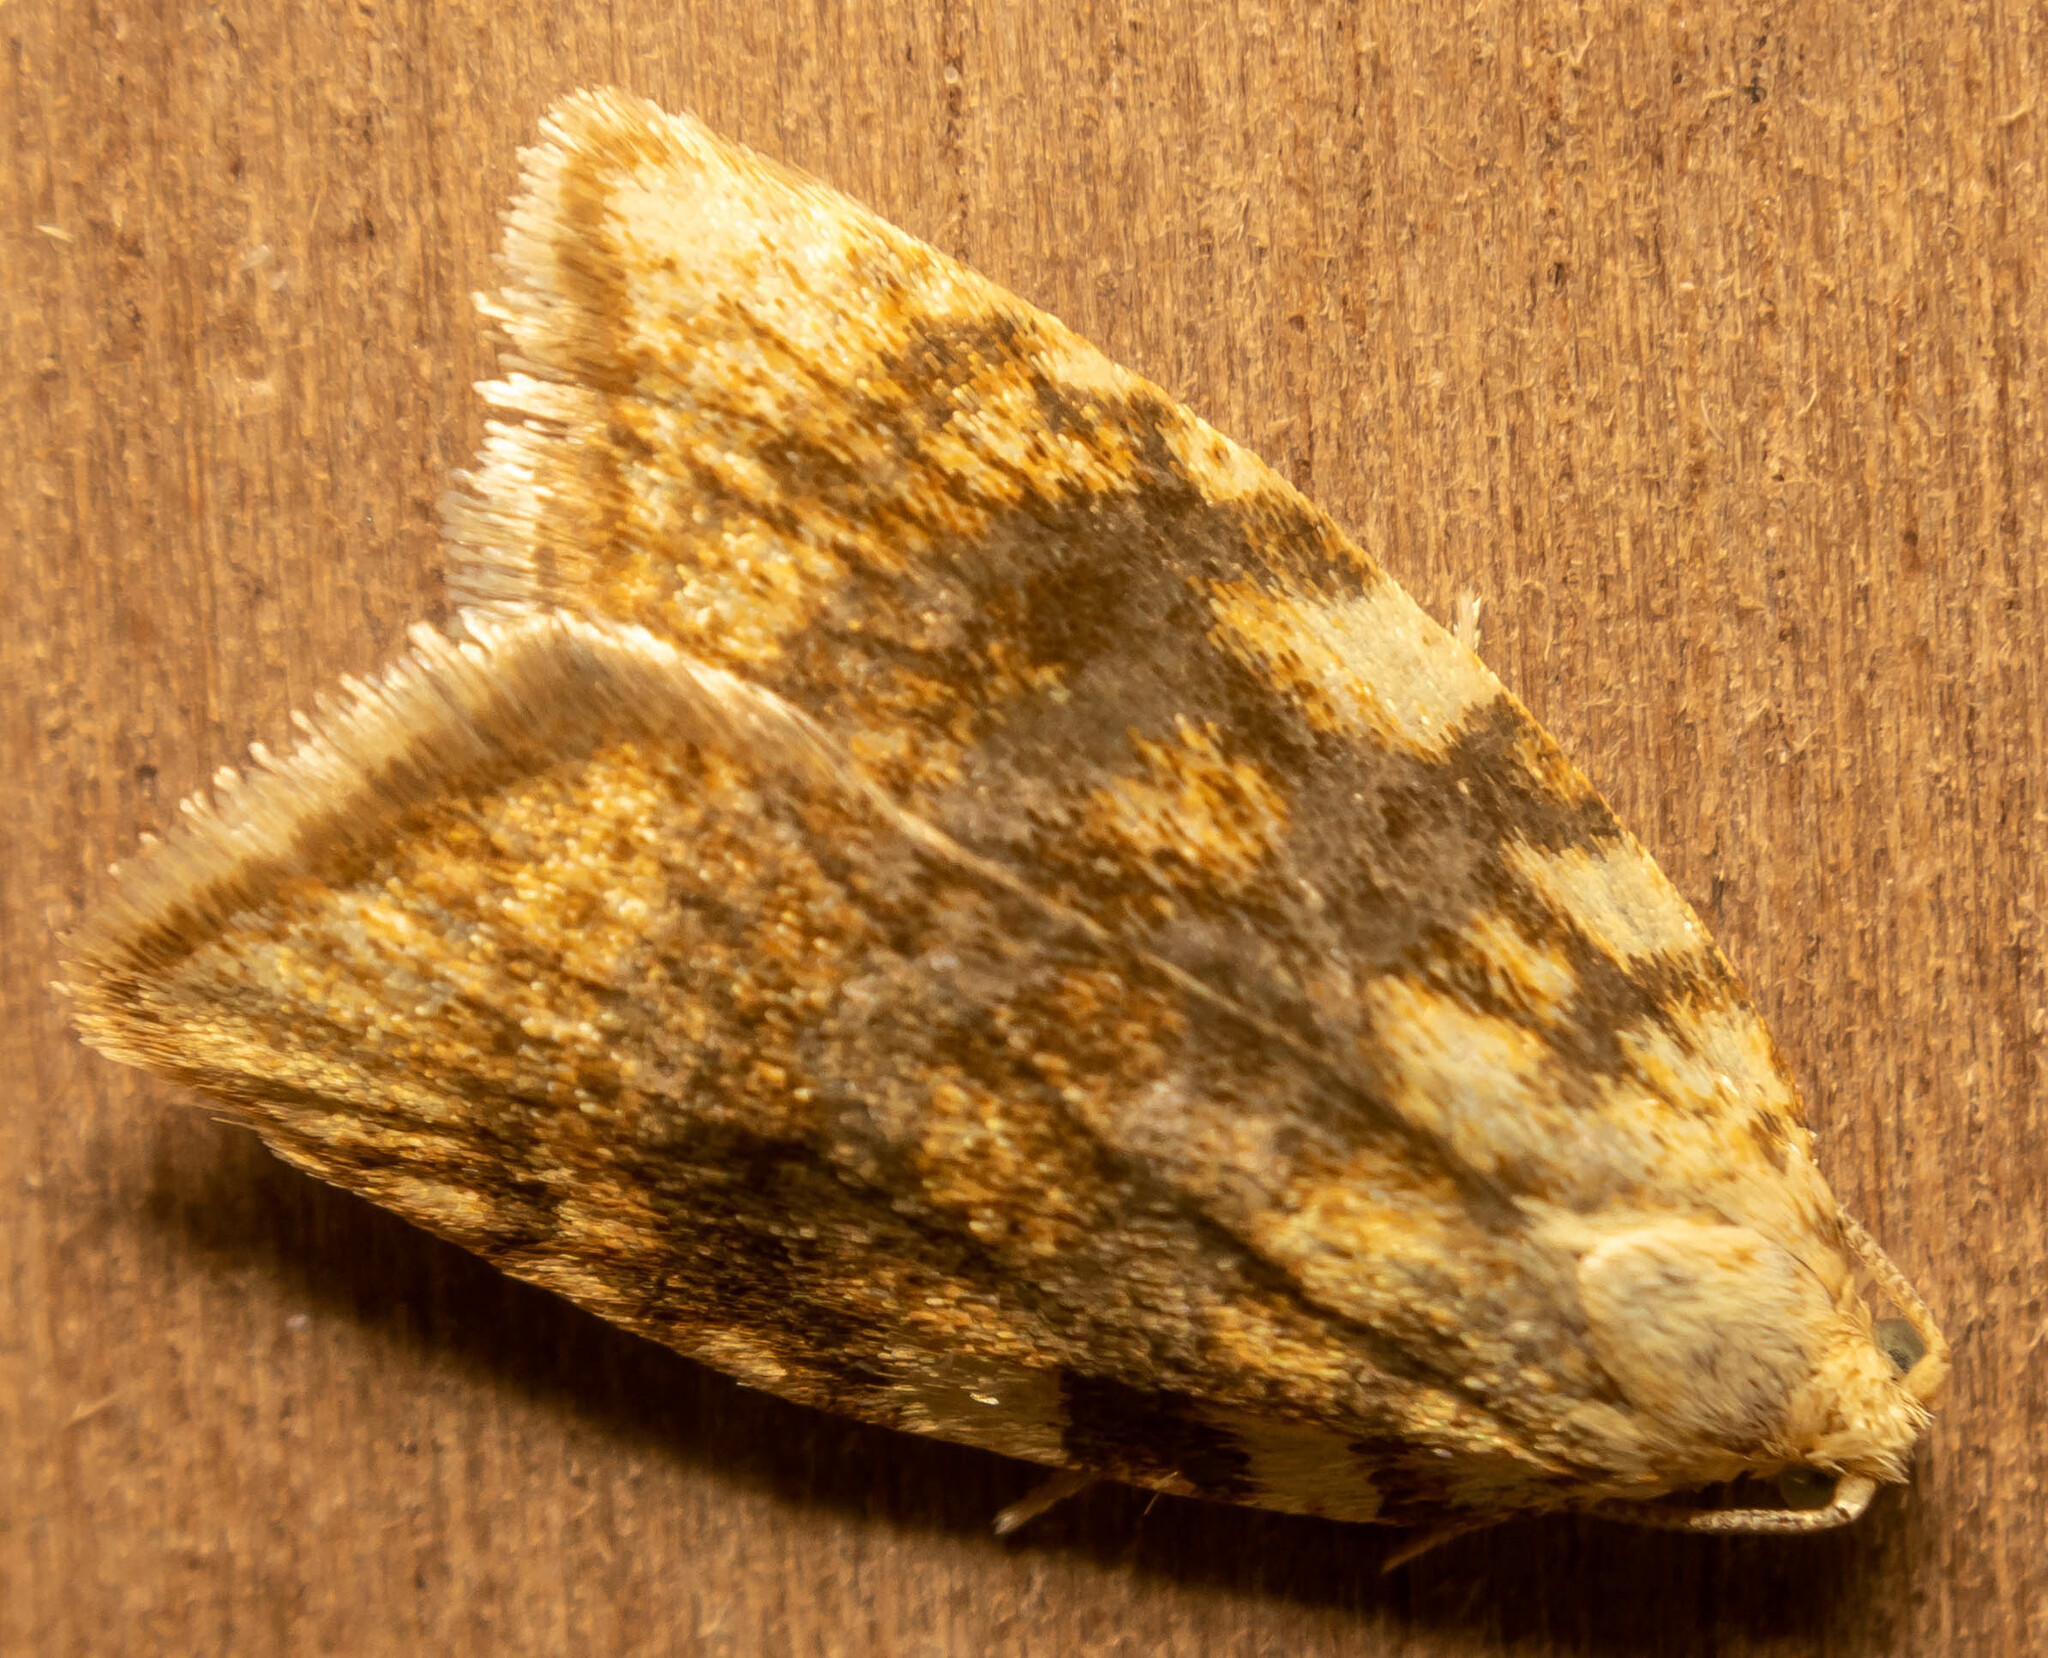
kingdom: Animalia
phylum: Arthropoda
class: Insecta
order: Lepidoptera
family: Tortricidae
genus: Aleimma
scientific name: Aleimma loeflingiana
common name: Yellow oak button
